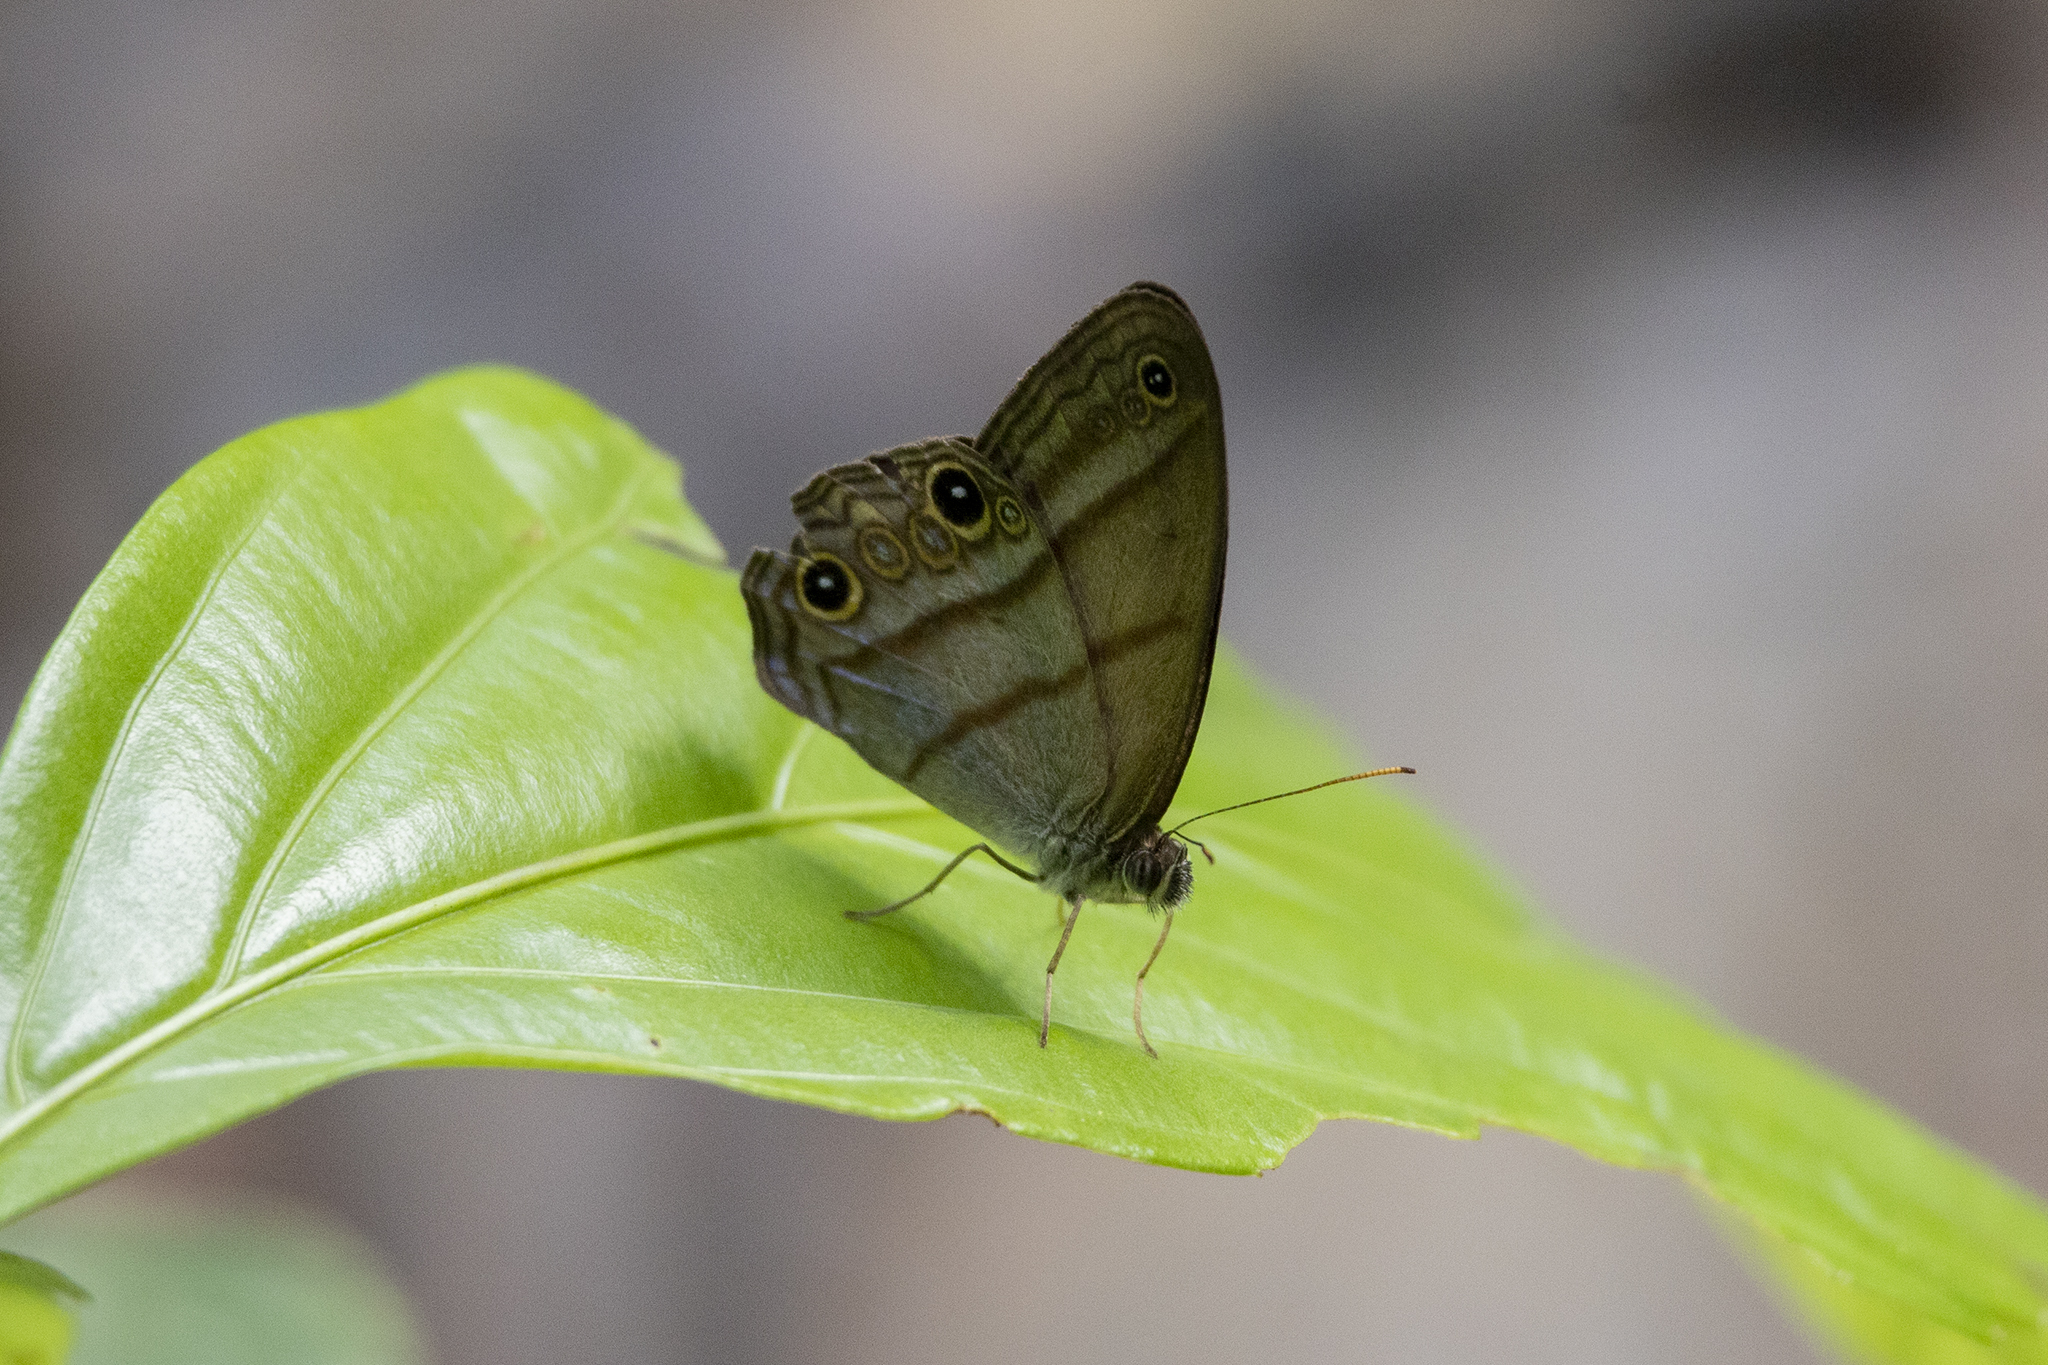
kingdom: Animalia
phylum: Arthropoda
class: Insecta
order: Lepidoptera
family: Nymphalidae
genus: Amiga
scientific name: Amiga arnaca
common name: Blue-topped satyr
